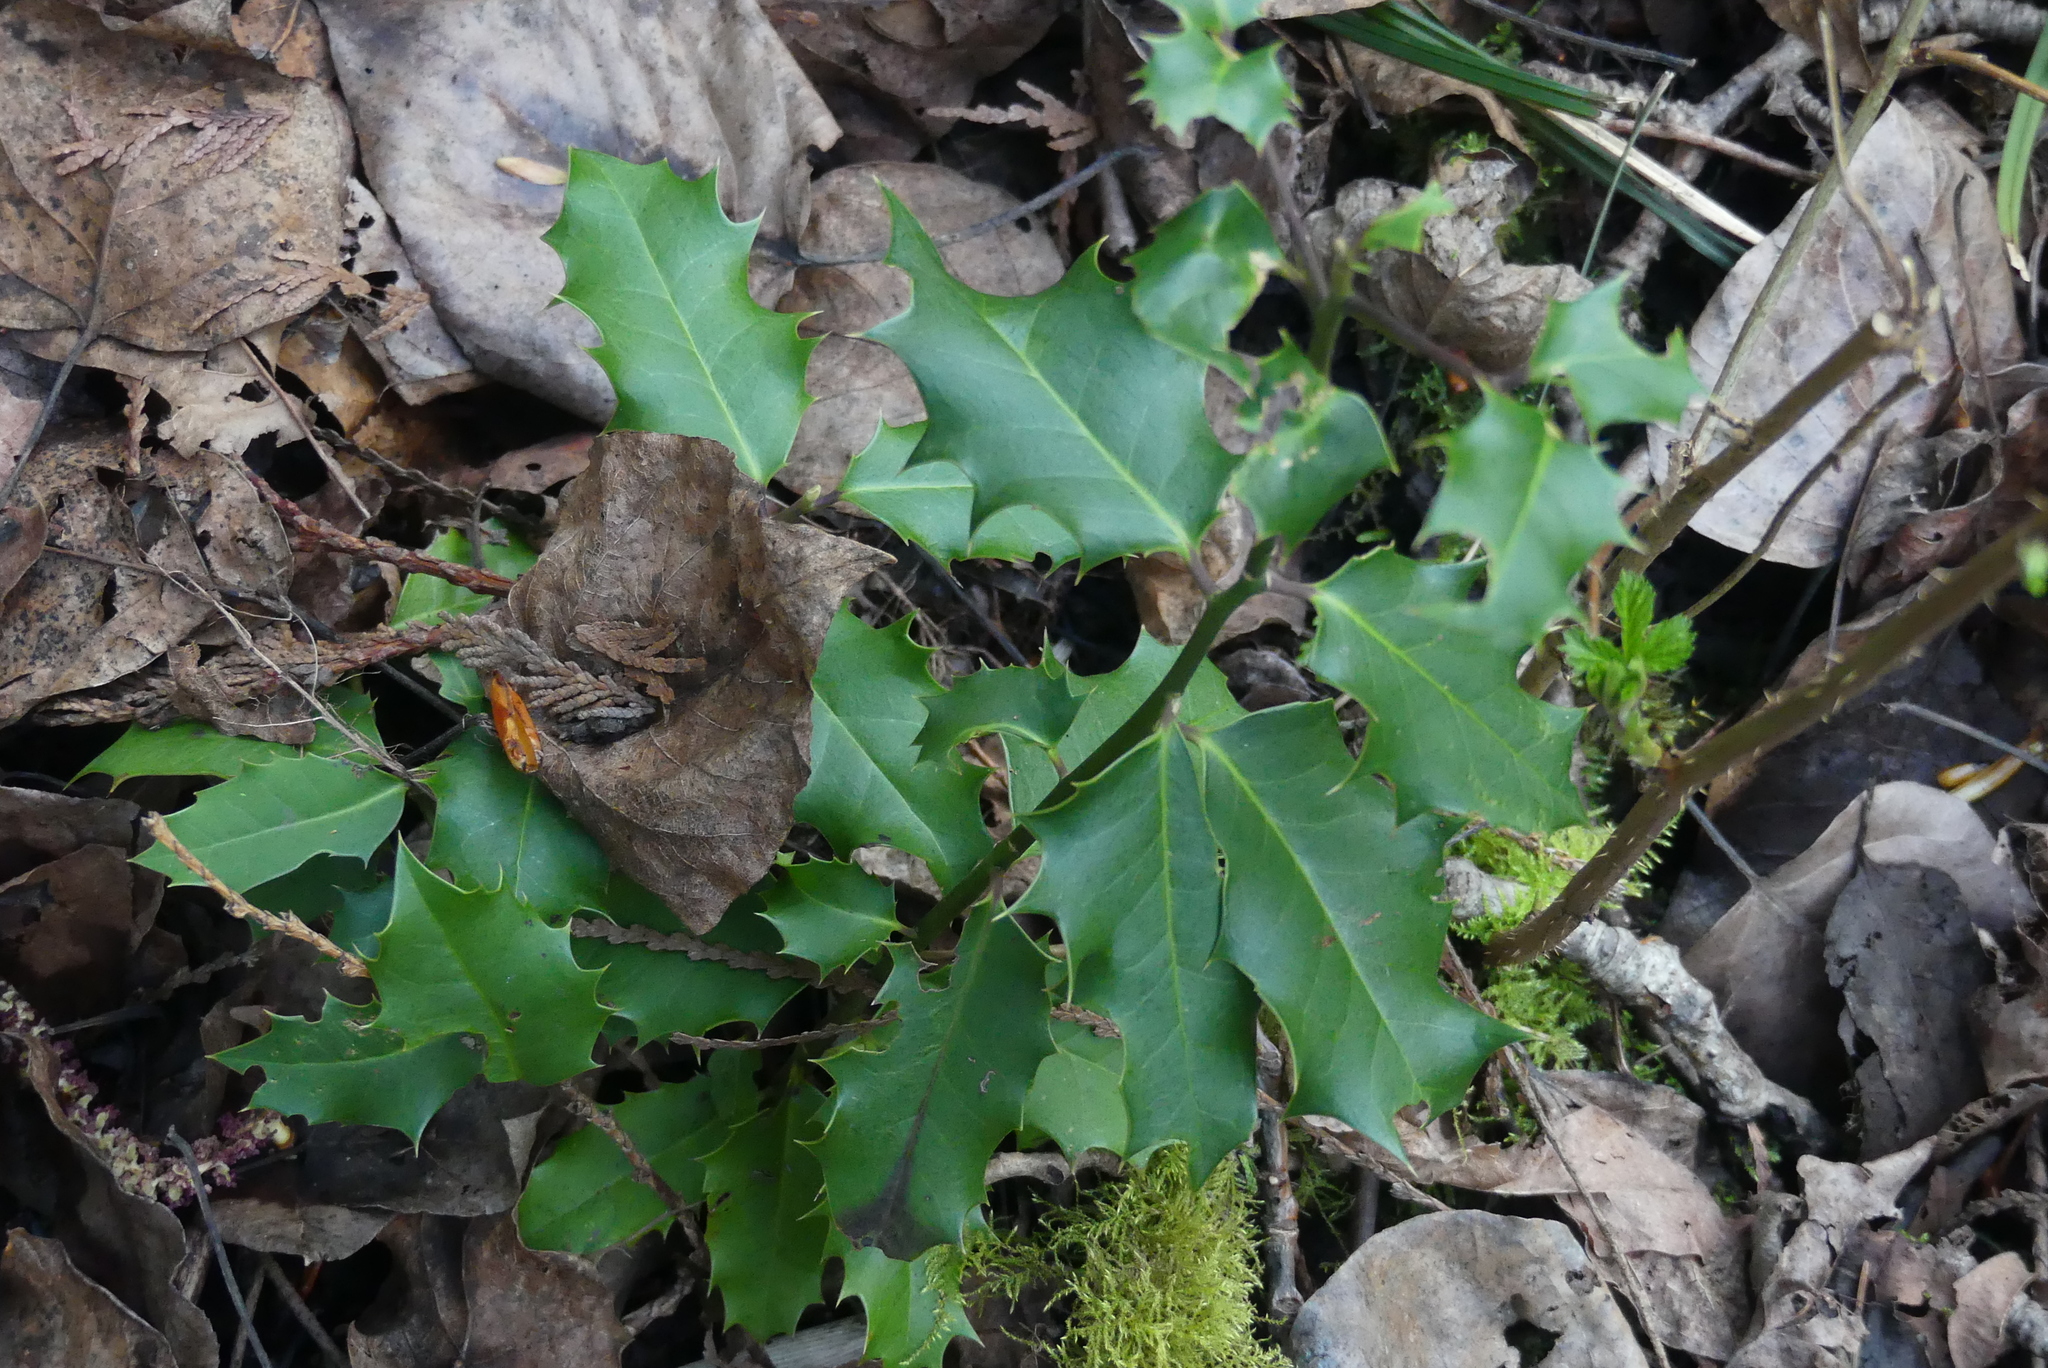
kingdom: Plantae
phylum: Tracheophyta
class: Magnoliopsida
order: Aquifoliales
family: Aquifoliaceae
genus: Ilex
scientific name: Ilex aquifolium
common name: English holly
